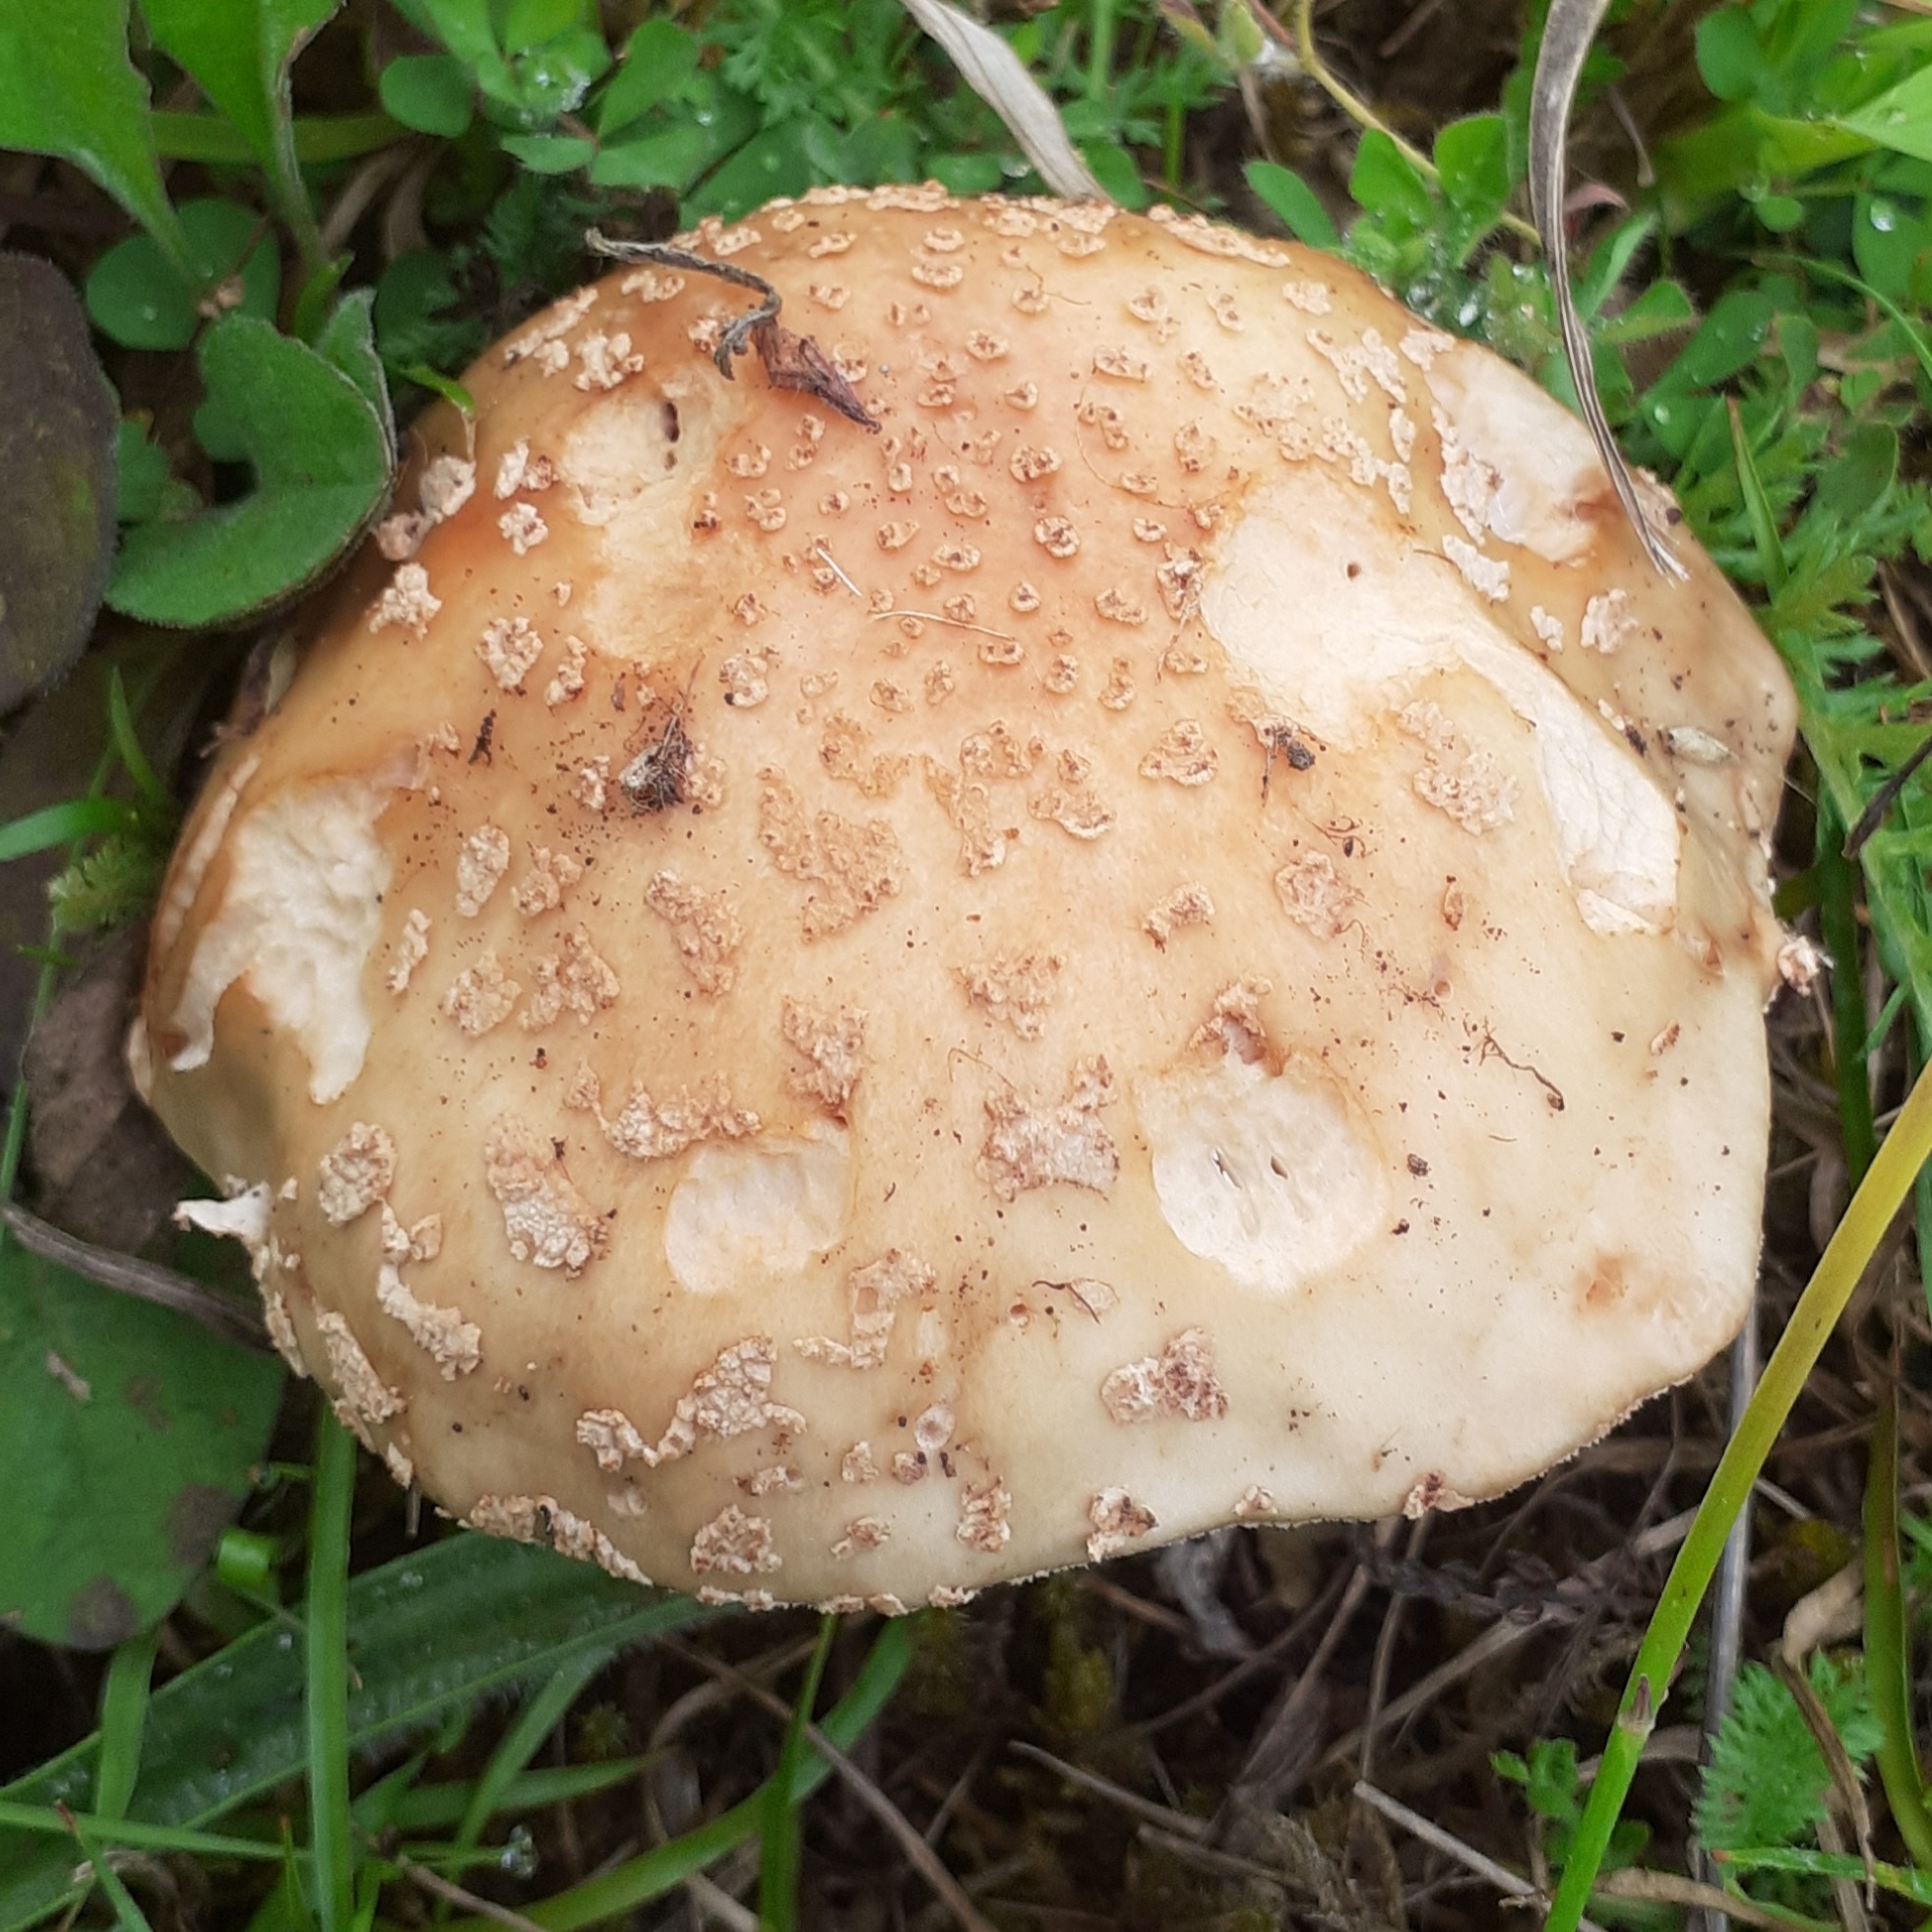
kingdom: Fungi
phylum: Basidiomycota
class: Agaricomycetes
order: Agaricales
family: Amanitaceae
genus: Amanita
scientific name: Amanita rubescens
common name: Blusher
